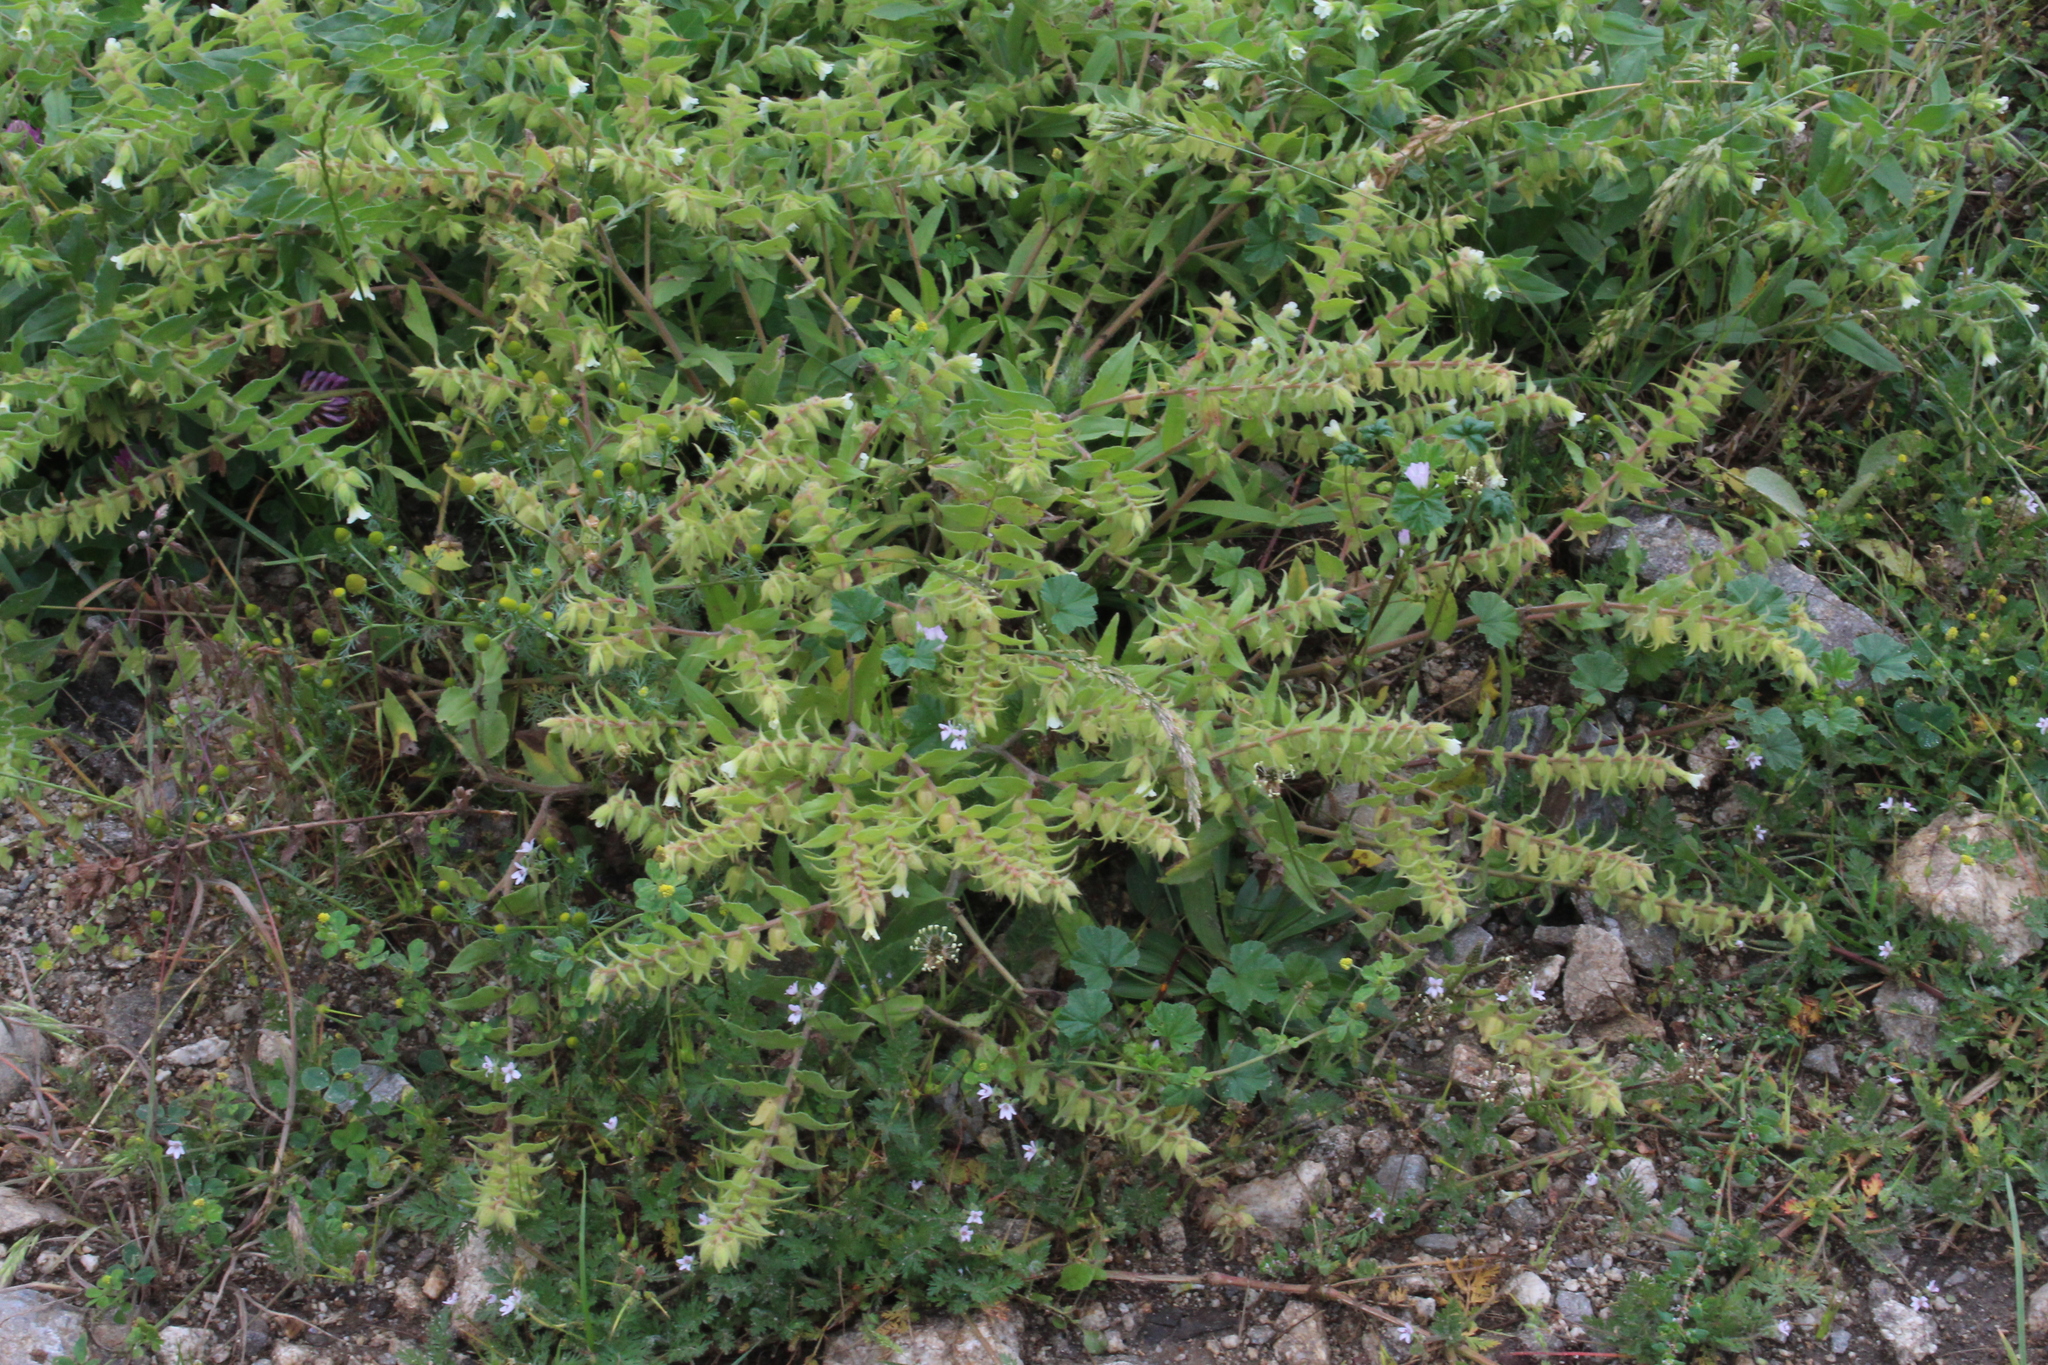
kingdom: Plantae
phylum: Tracheophyta
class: Magnoliopsida
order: Boraginales
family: Boraginaceae
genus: Nonea
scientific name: Nonea lutea
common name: Yellow nonea
